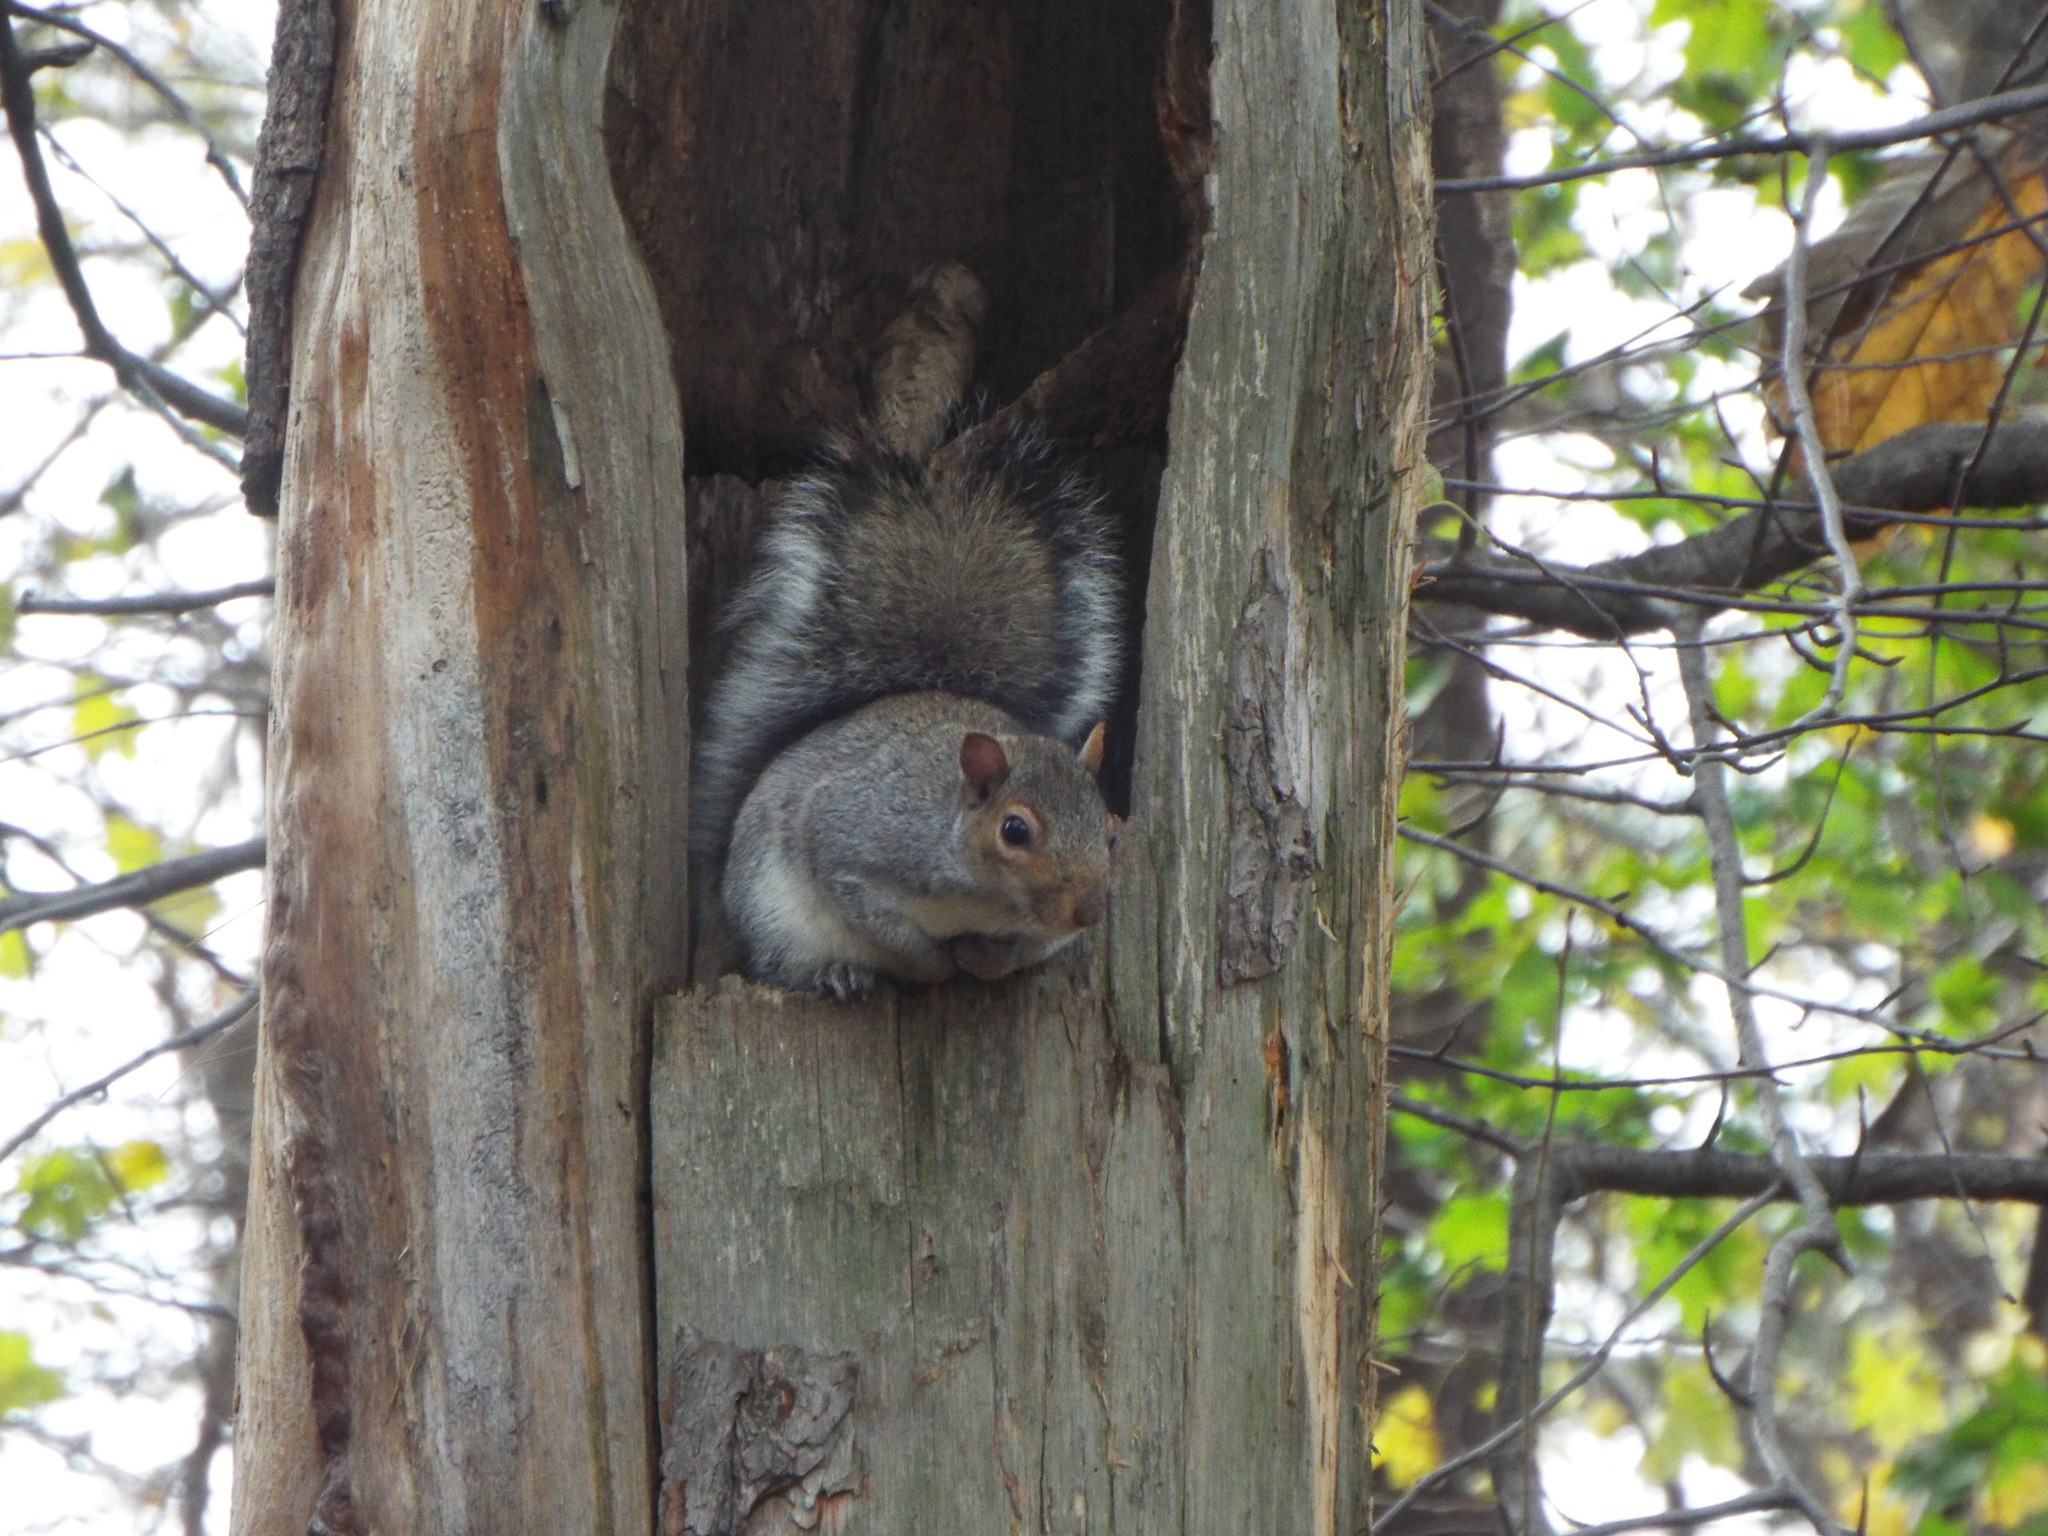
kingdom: Animalia
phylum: Chordata
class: Mammalia
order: Rodentia
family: Sciuridae
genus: Sciurus
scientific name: Sciurus carolinensis
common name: Eastern gray squirrel
